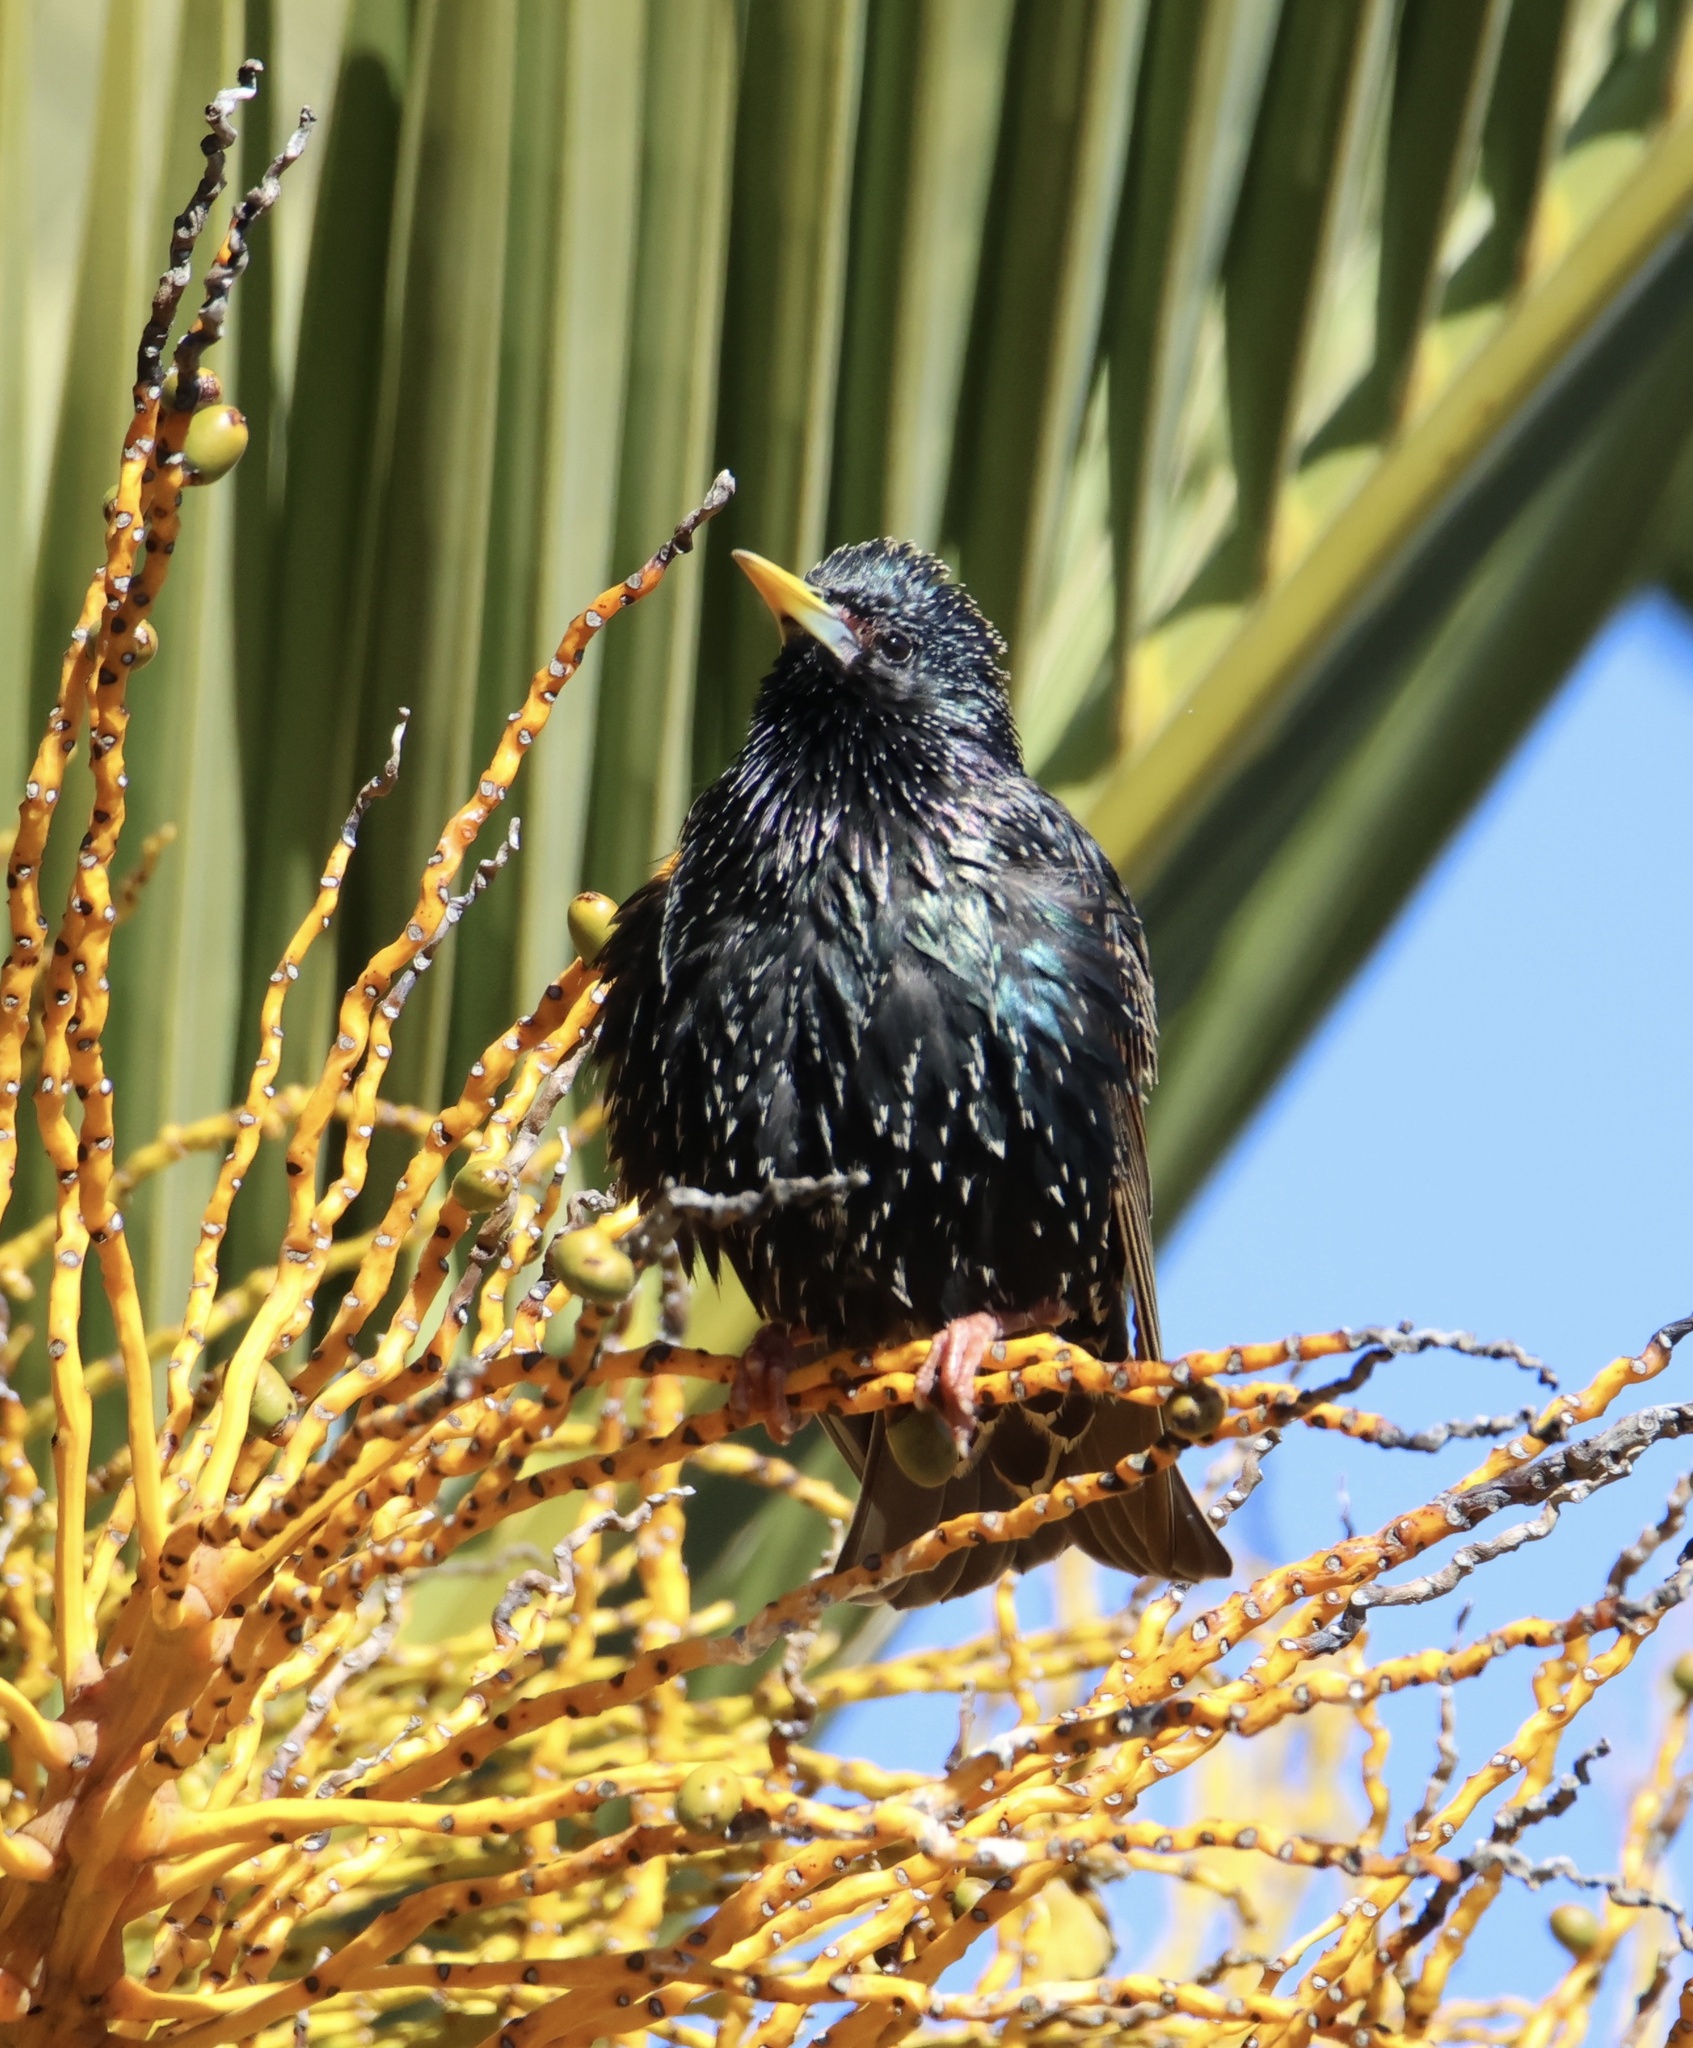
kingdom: Animalia
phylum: Chordata
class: Aves
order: Passeriformes
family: Sturnidae
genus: Sturnus
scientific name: Sturnus vulgaris
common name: Common starling
